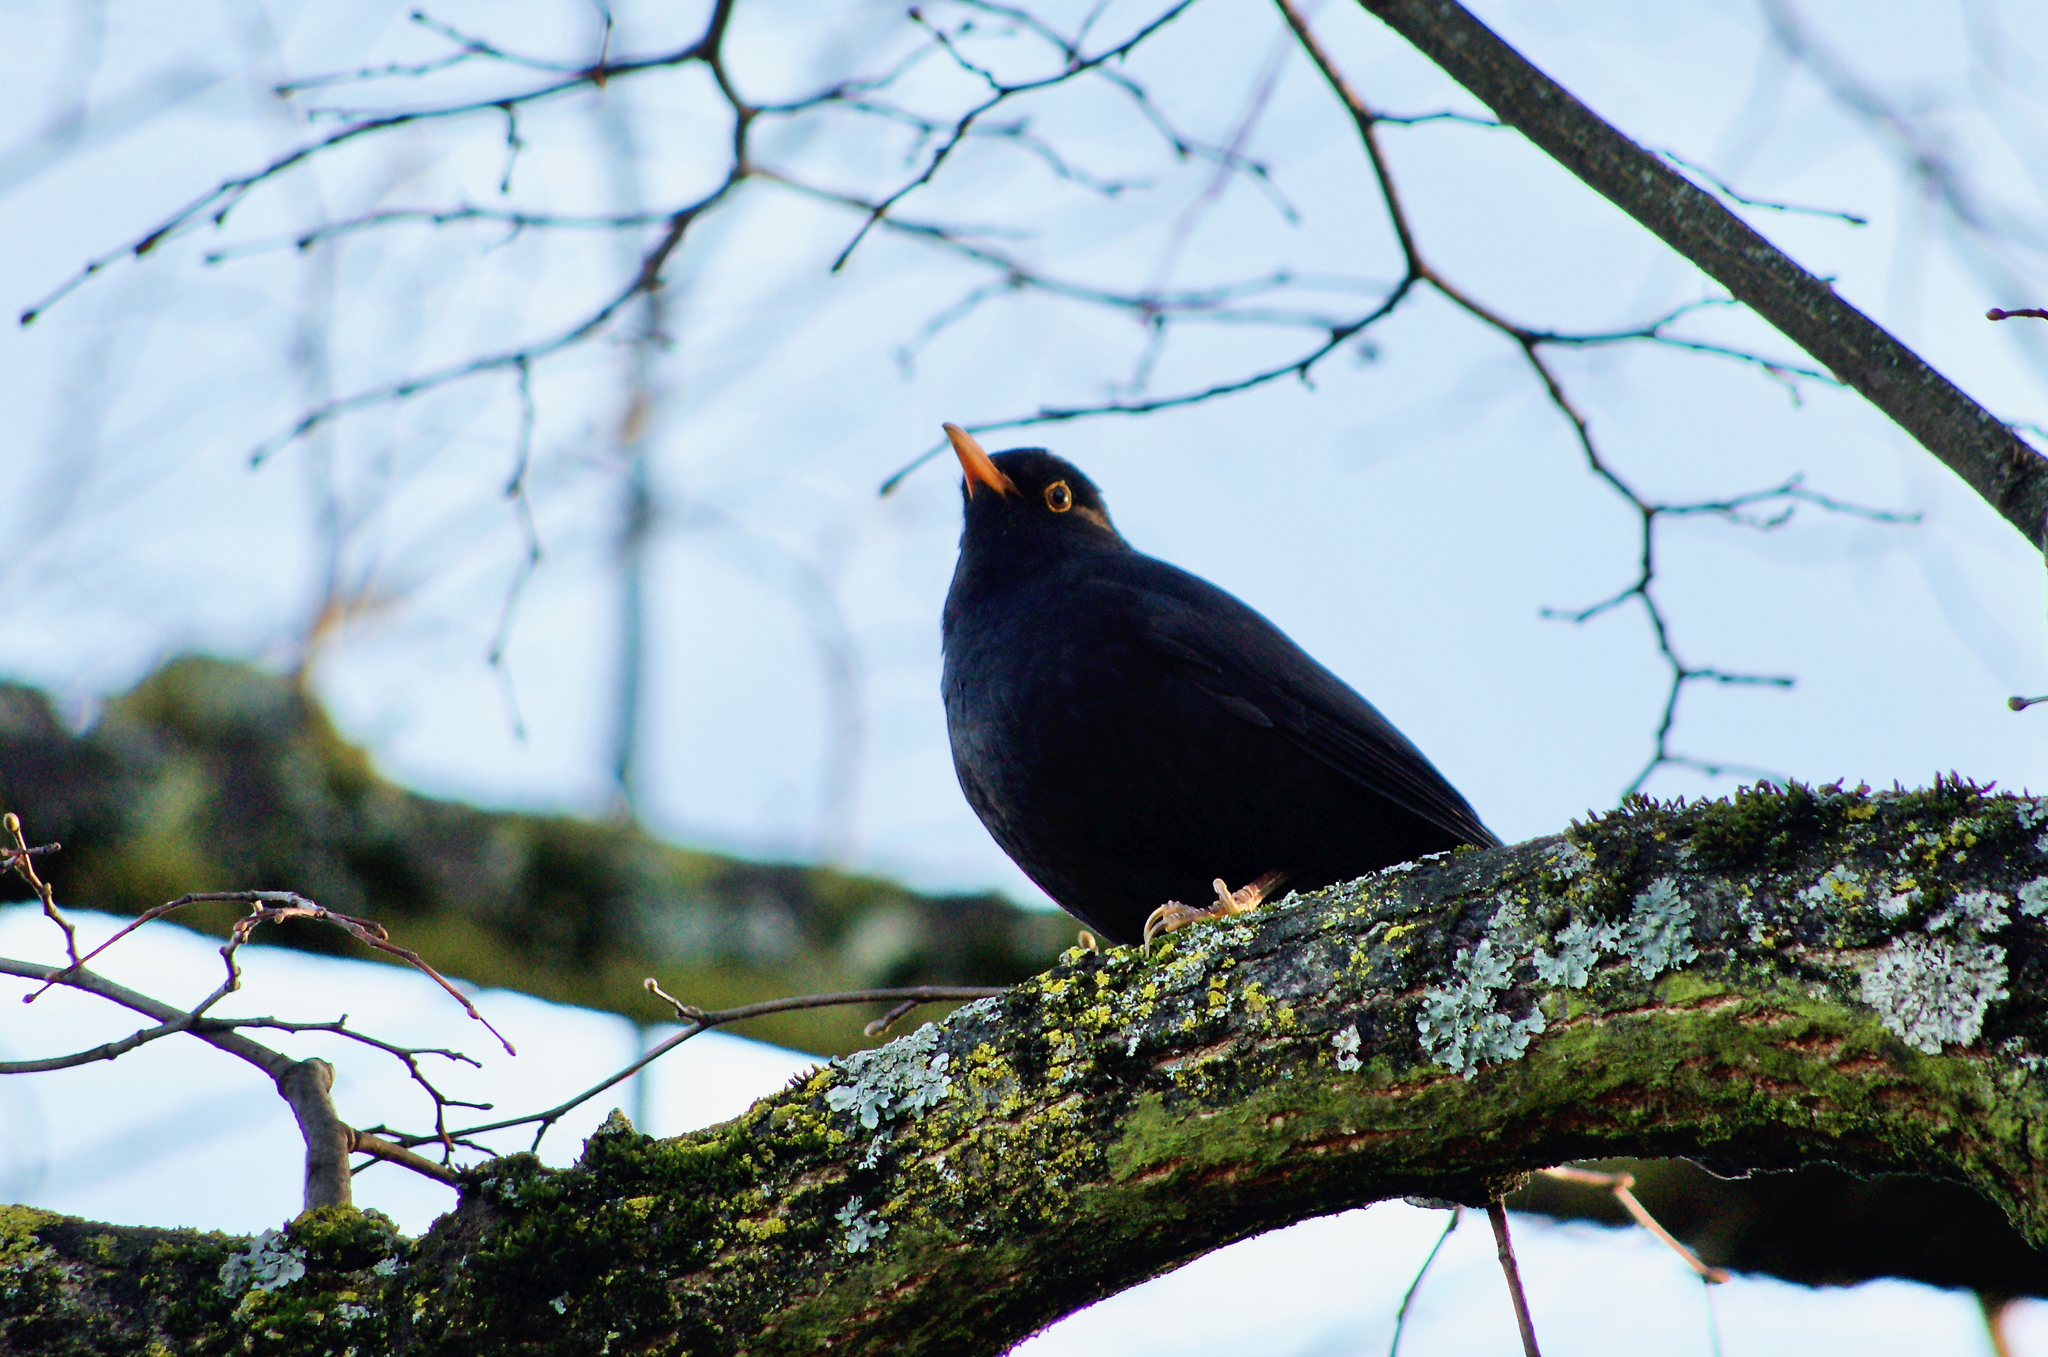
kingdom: Animalia
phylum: Chordata
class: Aves
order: Passeriformes
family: Turdidae
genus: Turdus
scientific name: Turdus merula
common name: Common blackbird
